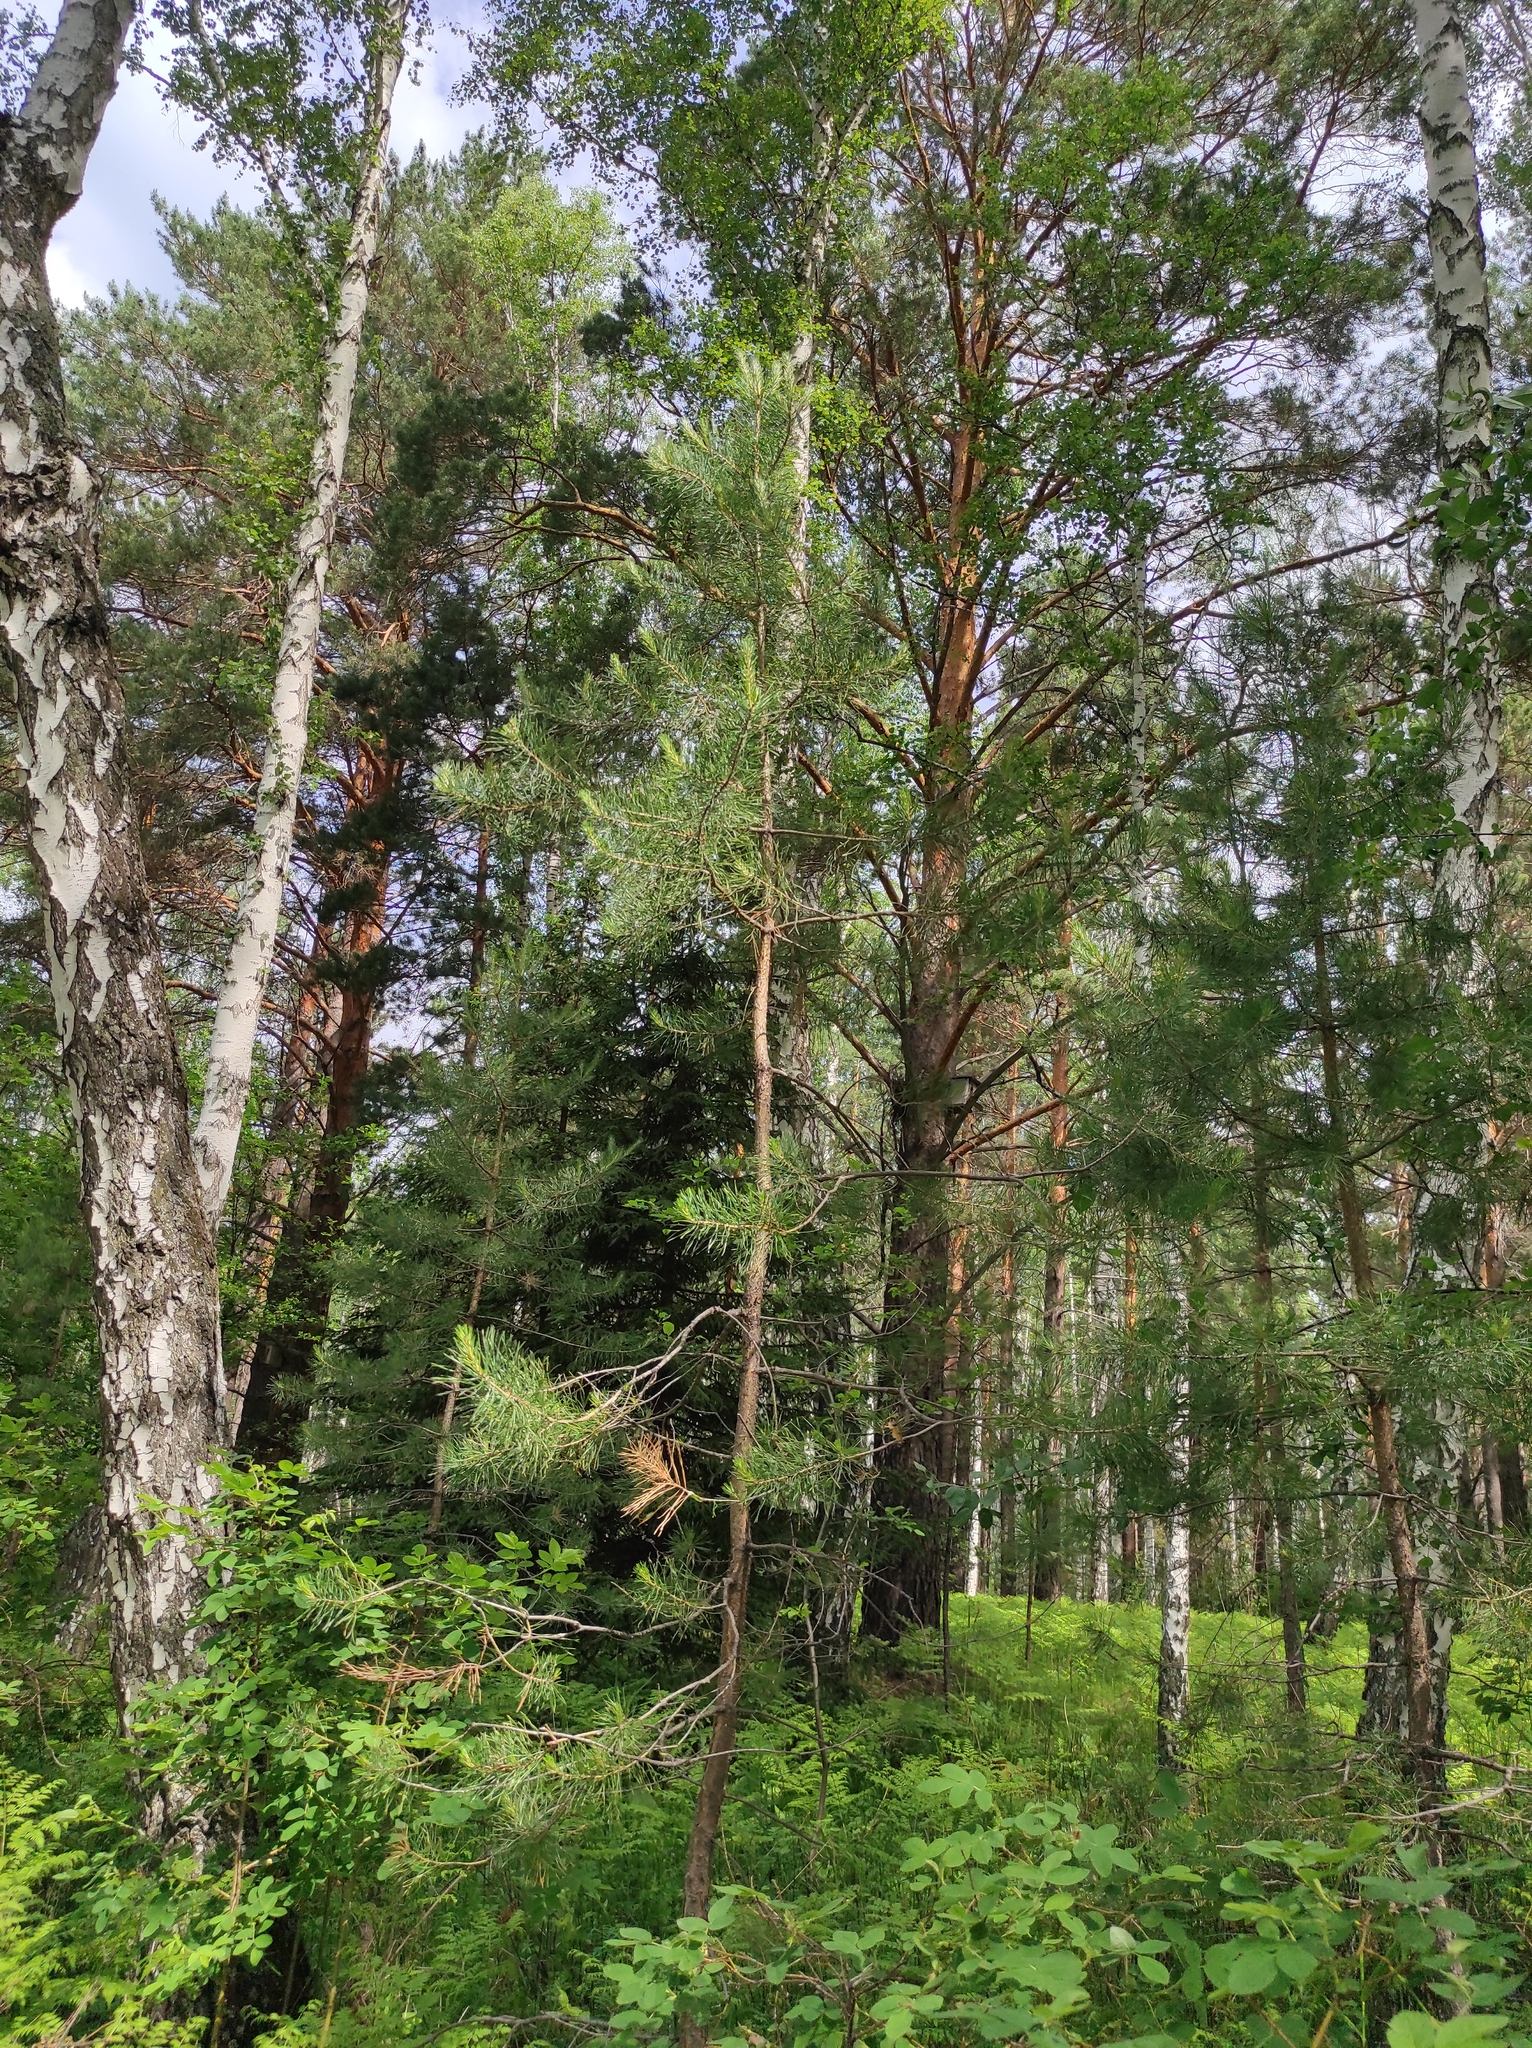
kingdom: Plantae
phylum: Tracheophyta
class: Pinopsida
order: Pinales
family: Pinaceae
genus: Pinus
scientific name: Pinus sylvestris
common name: Scots pine
